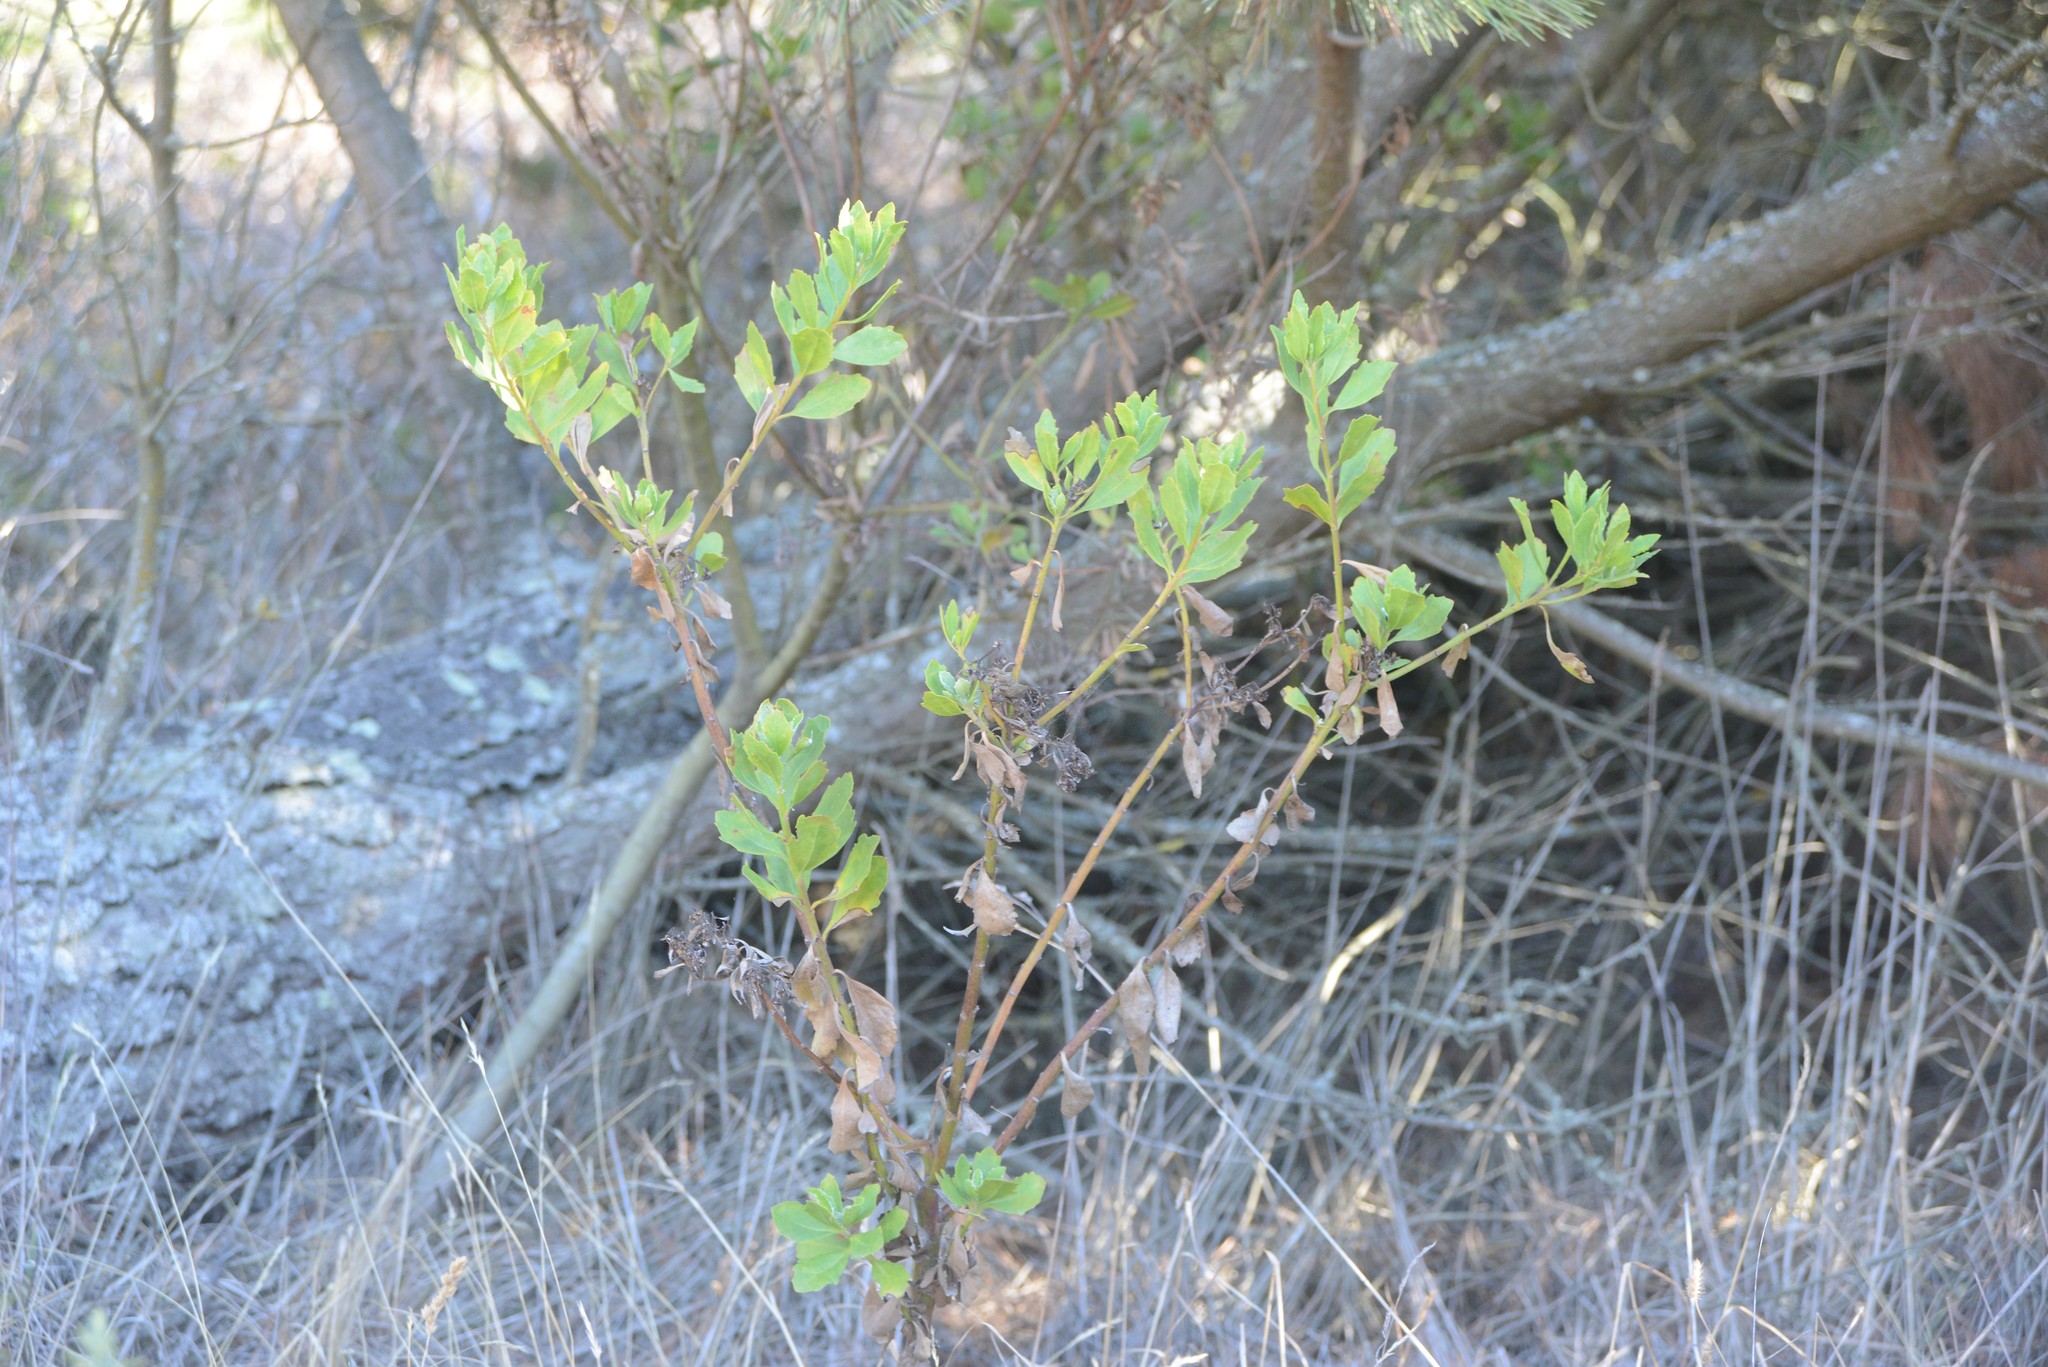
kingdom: Plantae
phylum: Tracheophyta
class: Magnoliopsida
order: Asterales
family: Asteraceae
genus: Osteospermum
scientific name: Osteospermum moniliferum
